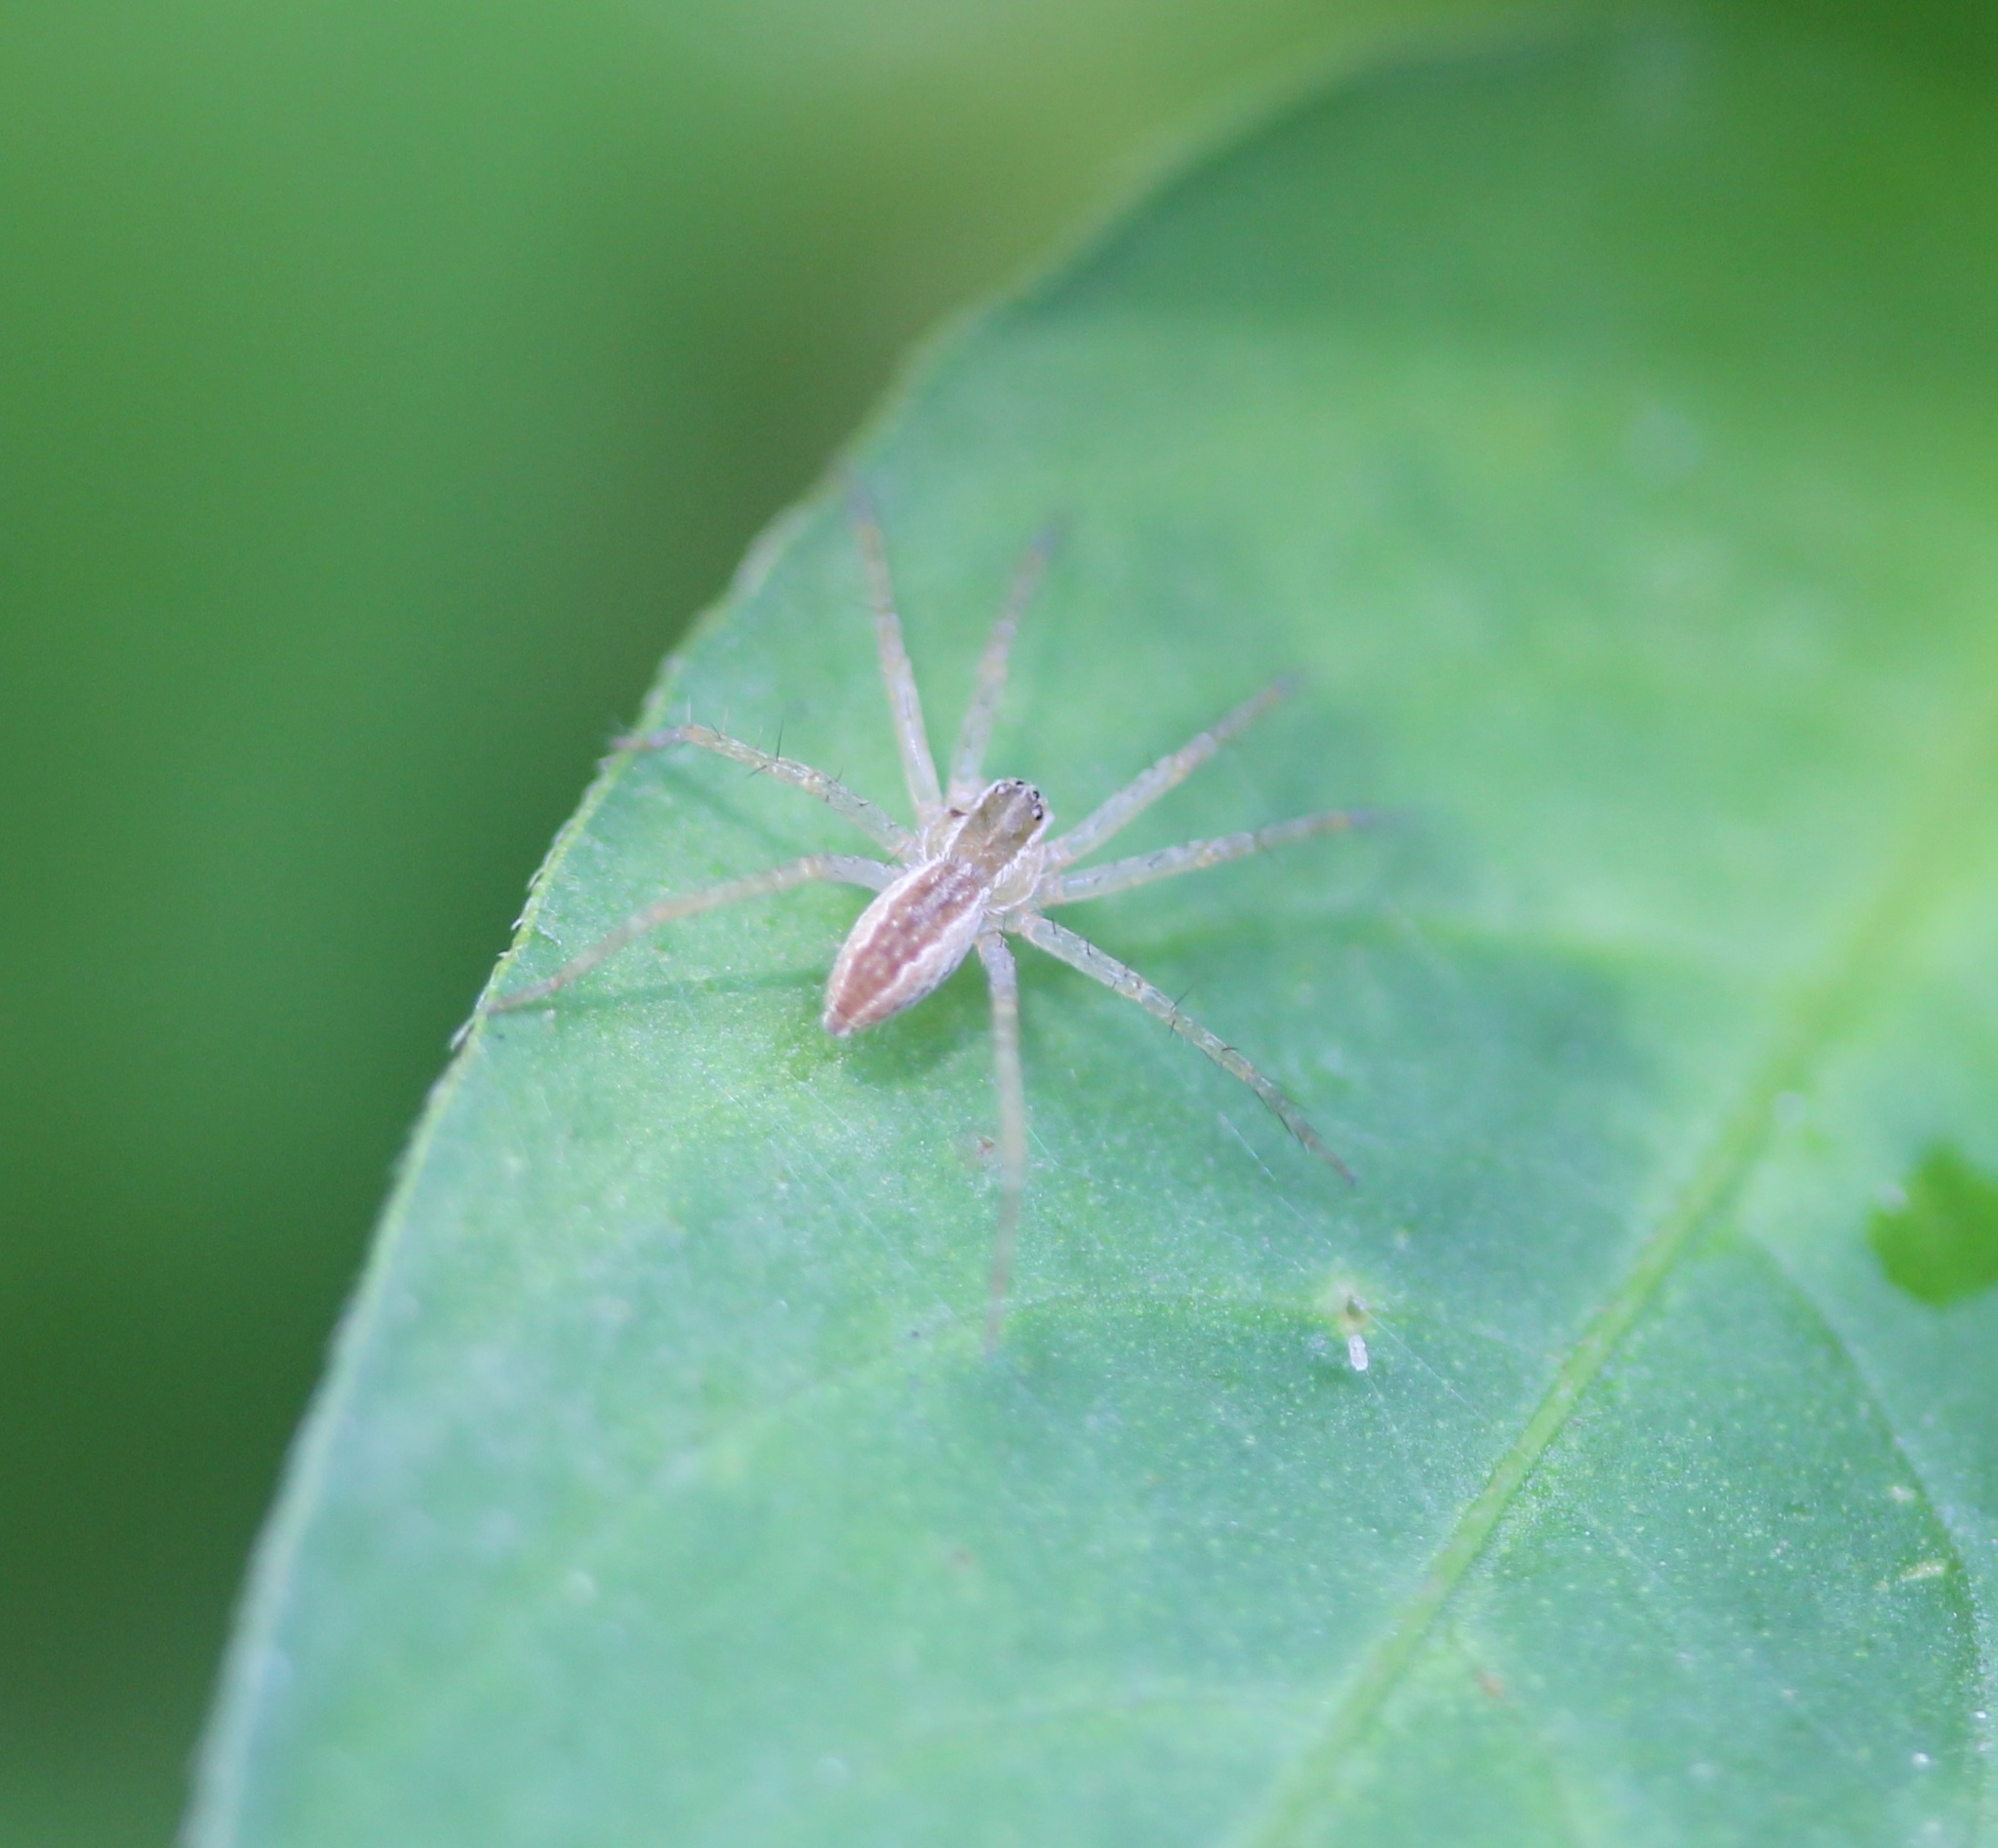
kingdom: Animalia
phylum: Arthropoda
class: Arachnida
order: Araneae
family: Pisauridae
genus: Pisaurina
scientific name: Pisaurina mira
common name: American nursery web spider
